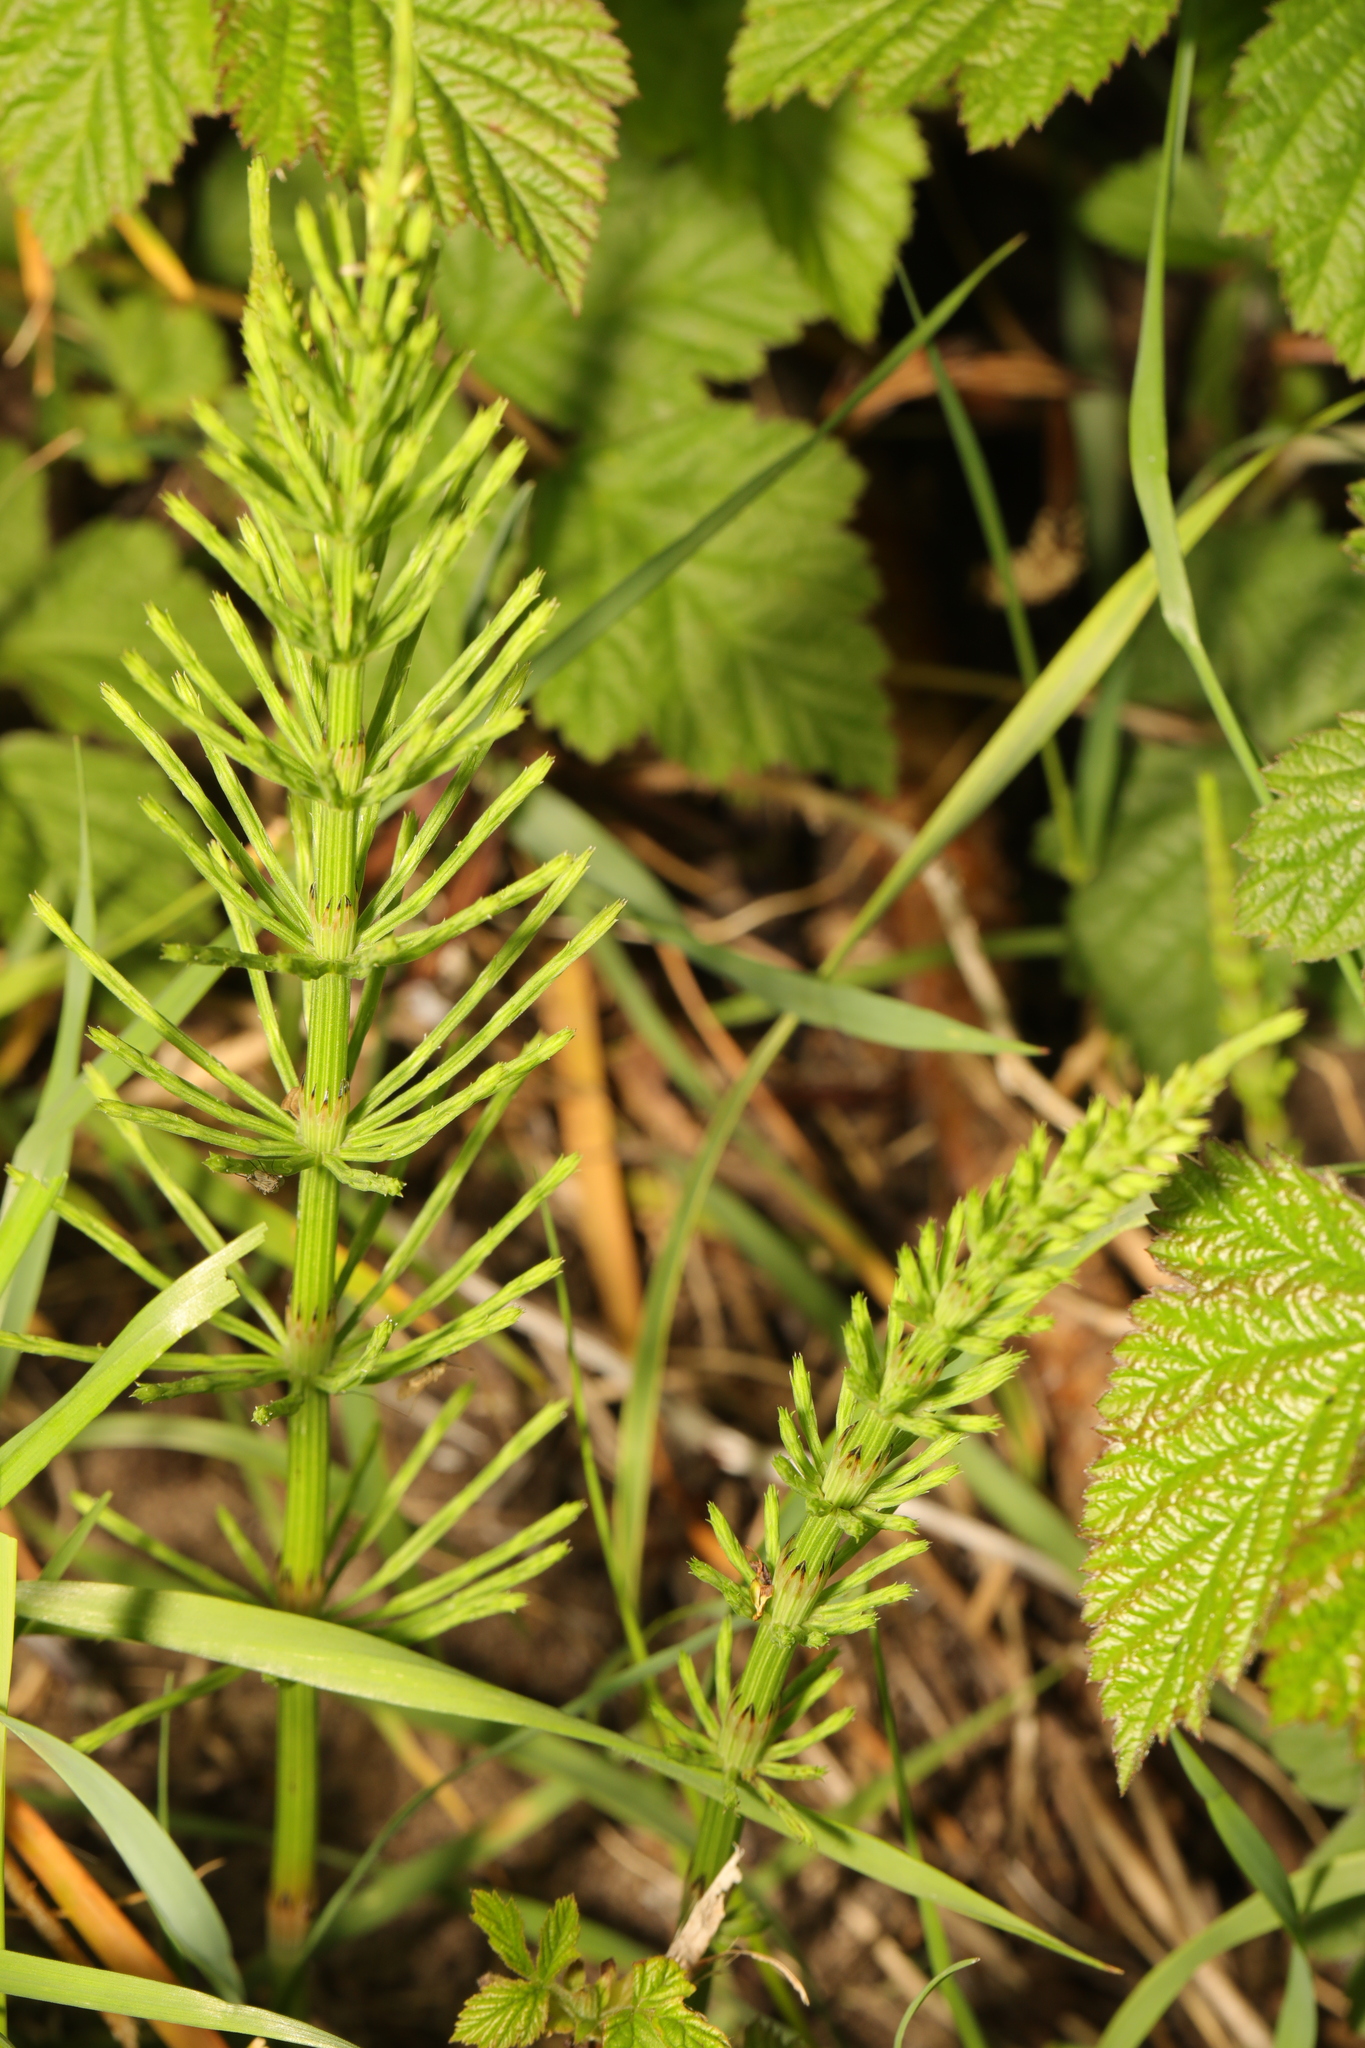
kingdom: Plantae
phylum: Tracheophyta
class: Polypodiopsida
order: Equisetales
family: Equisetaceae
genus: Equisetum
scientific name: Equisetum arvense
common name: Field horsetail
